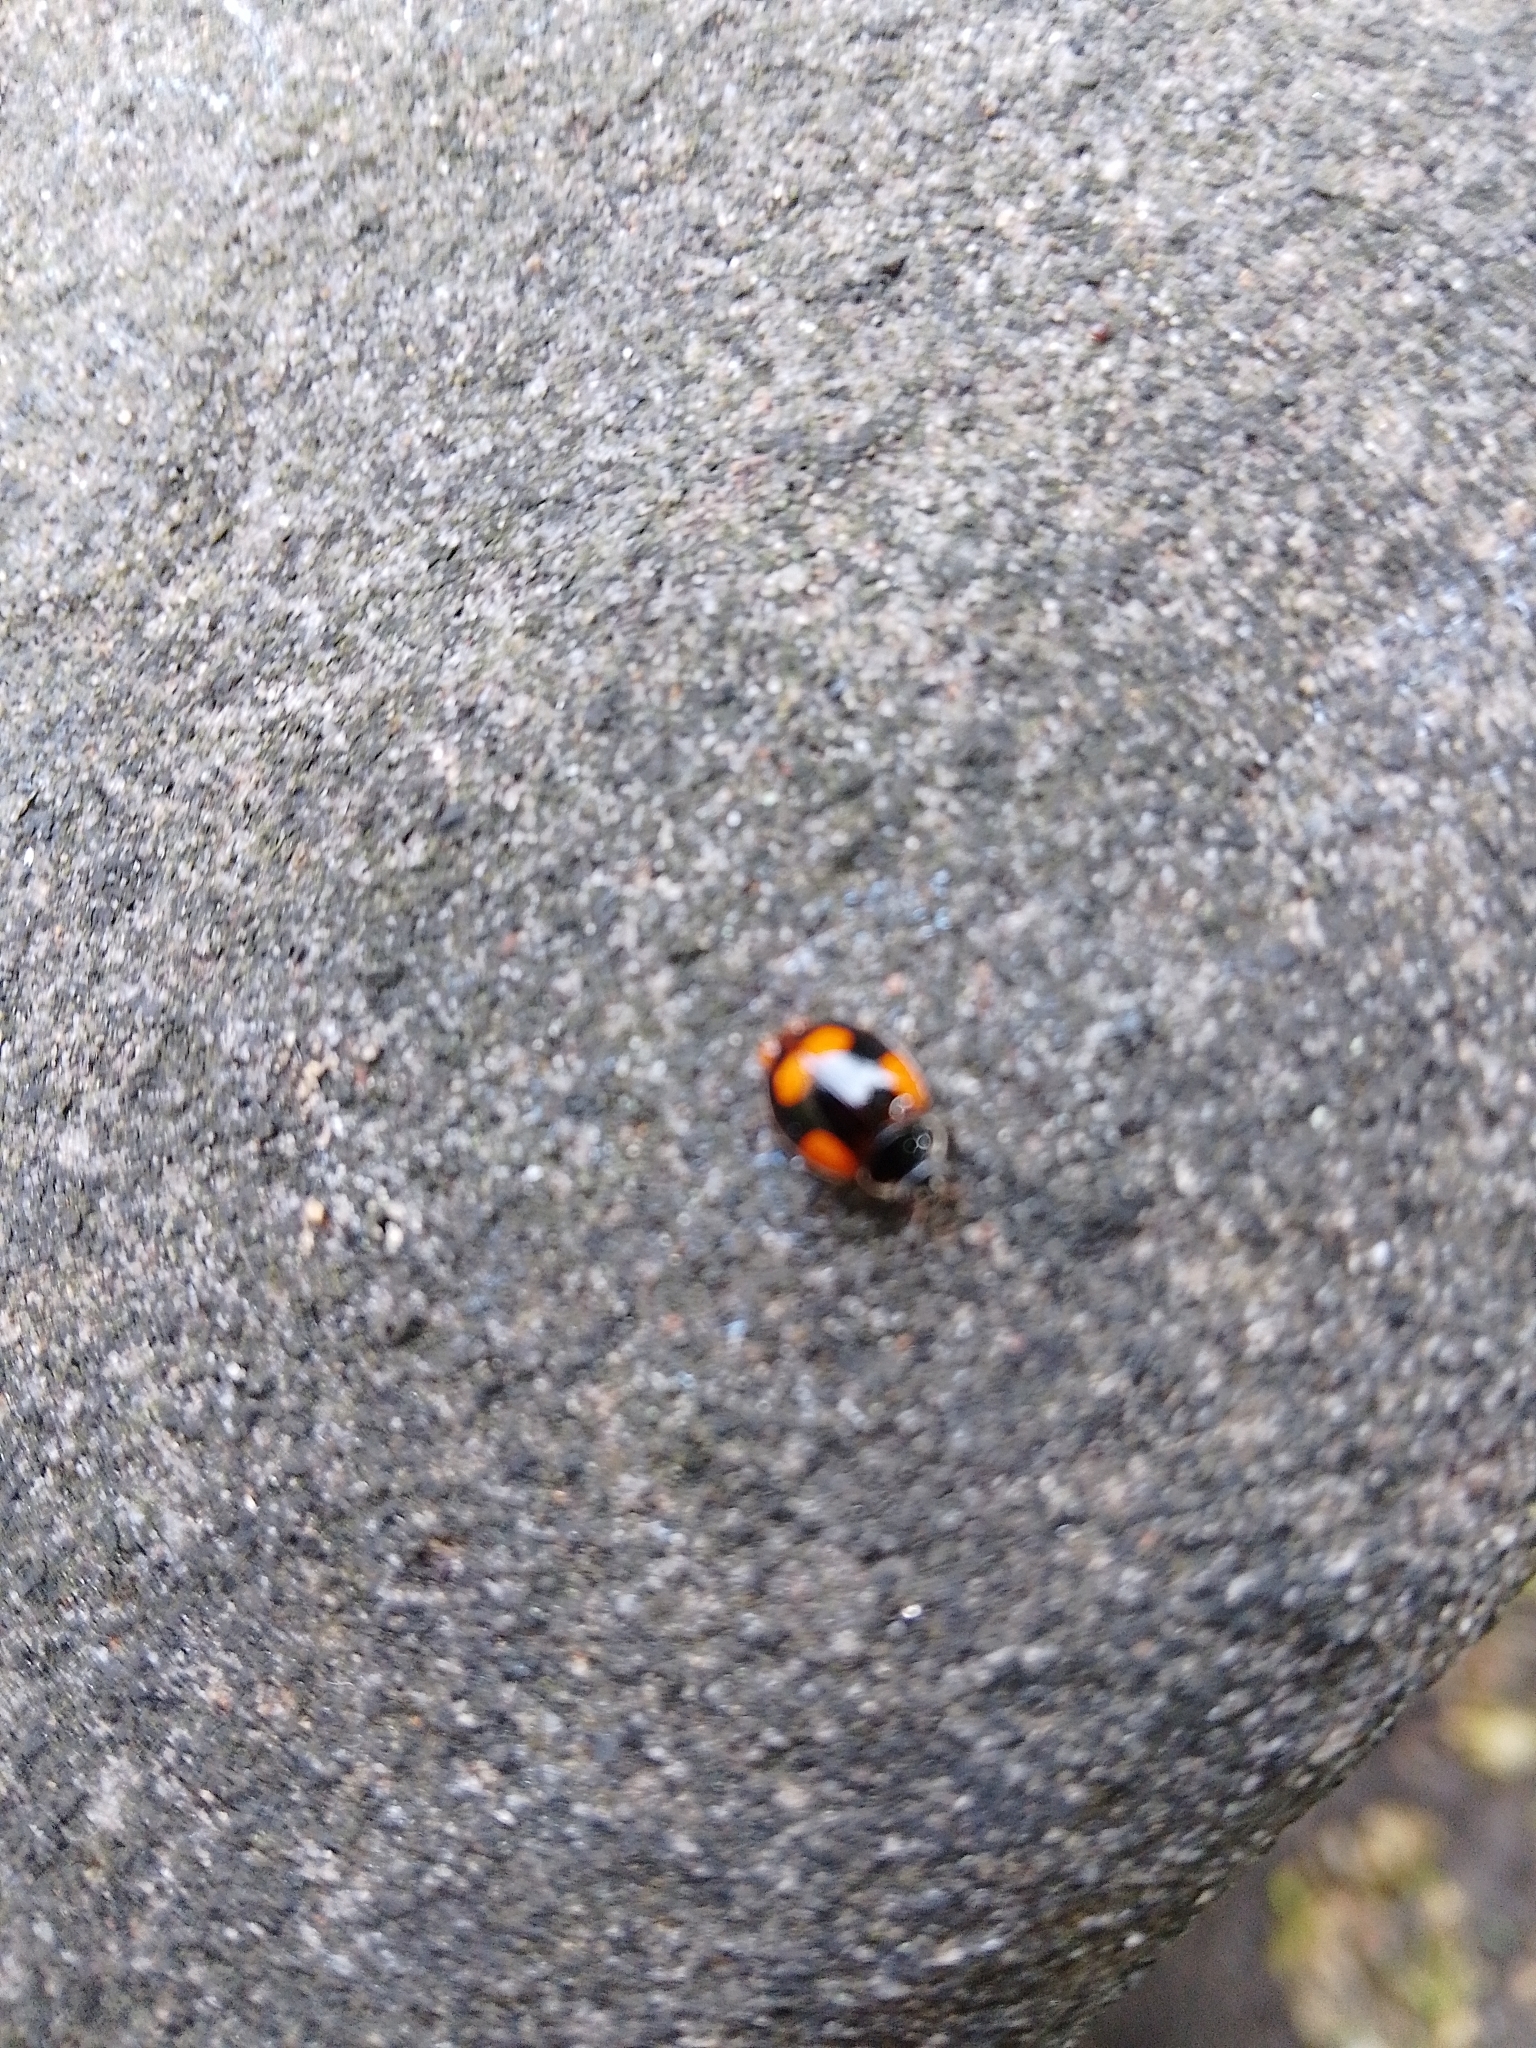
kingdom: Animalia
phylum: Arthropoda
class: Insecta
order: Coleoptera
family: Coccinellidae
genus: Adalia
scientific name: Adalia bipunctata
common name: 2-spot ladybird
